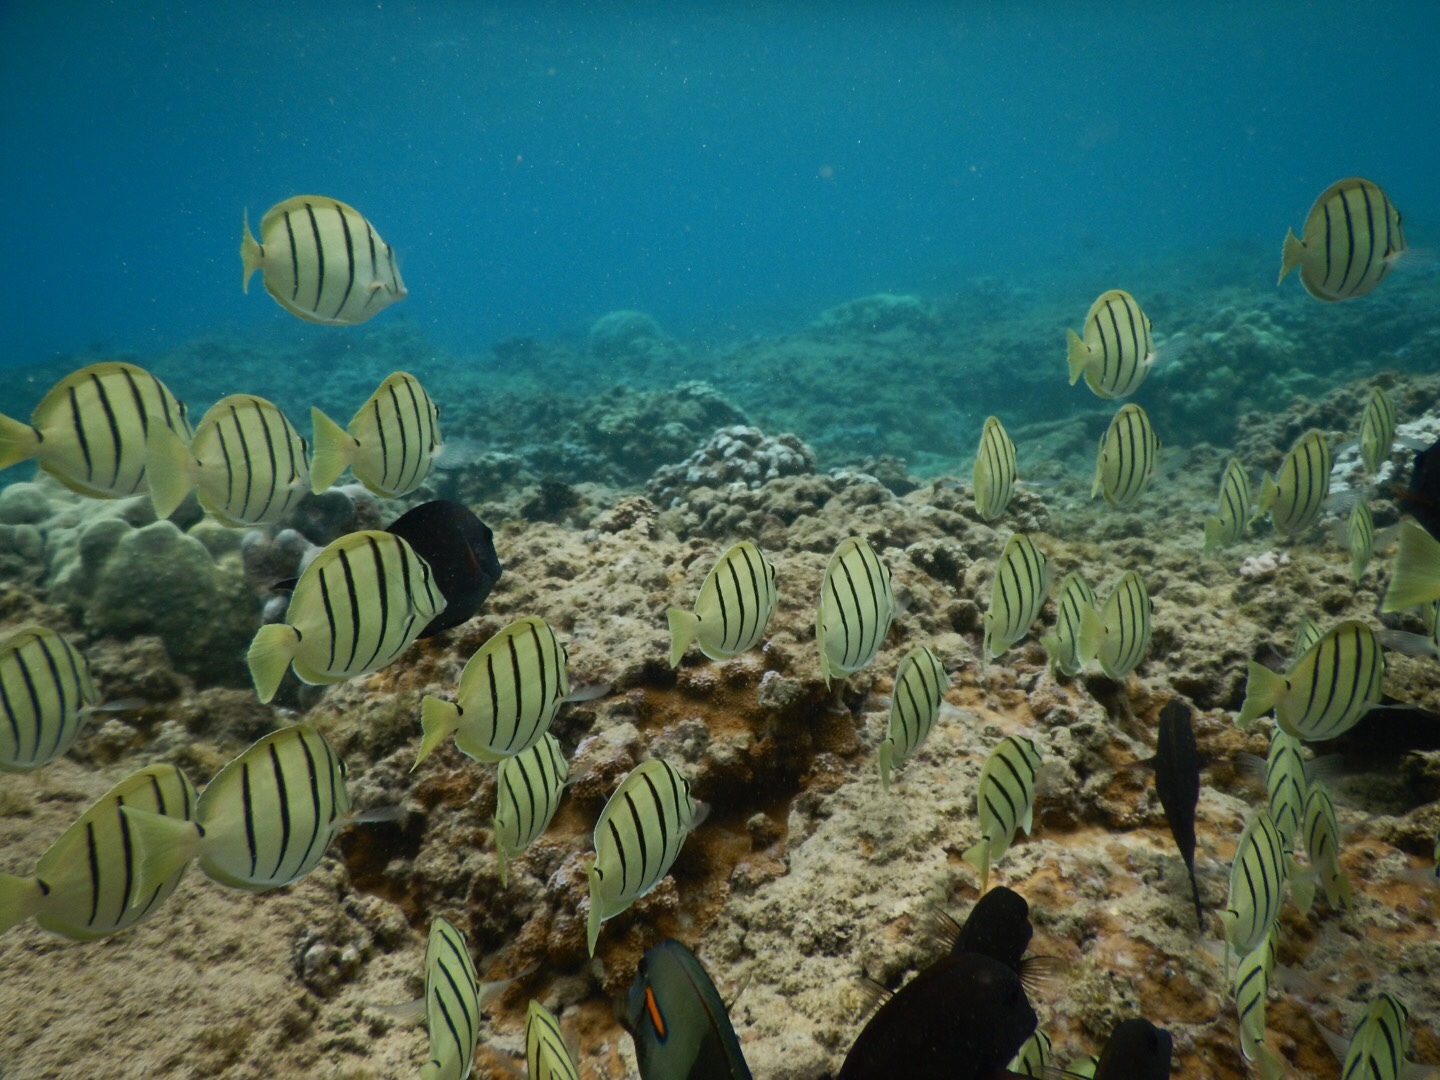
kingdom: Animalia
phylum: Chordata
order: Perciformes
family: Acanthuridae
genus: Acanthurus
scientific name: Acanthurus triostegus
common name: Convict surgeonfish
